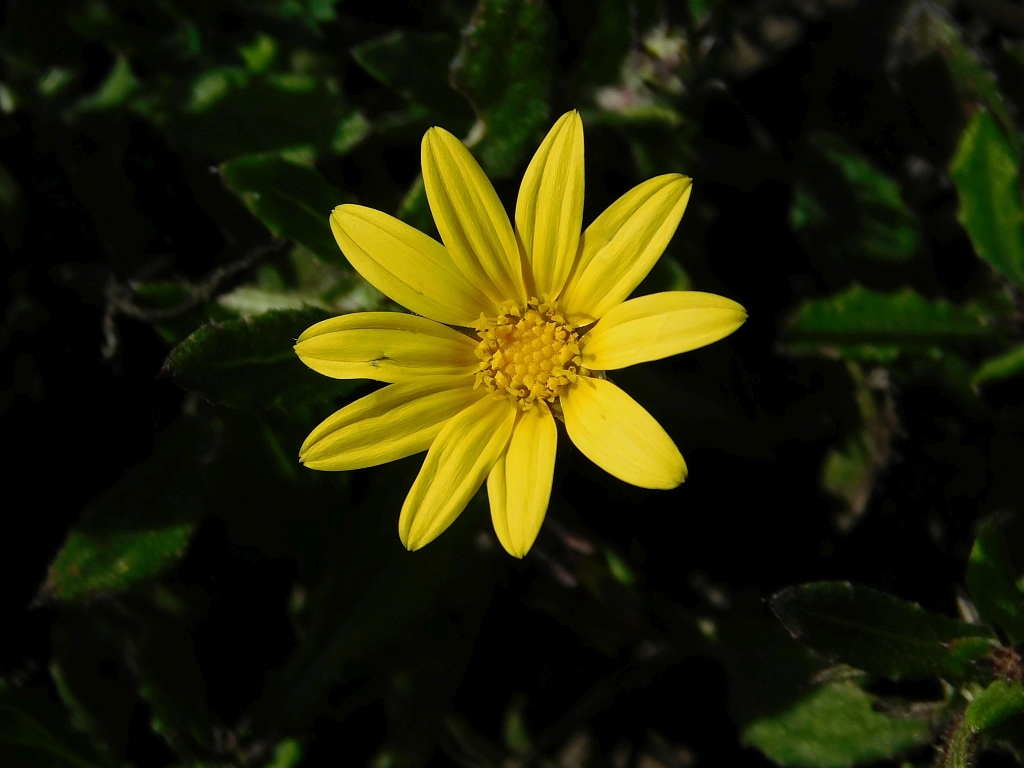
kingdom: Plantae
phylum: Tracheophyta
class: Magnoliopsida
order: Asterales
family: Asteraceae
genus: Arctotis
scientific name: Arctotis scabra
